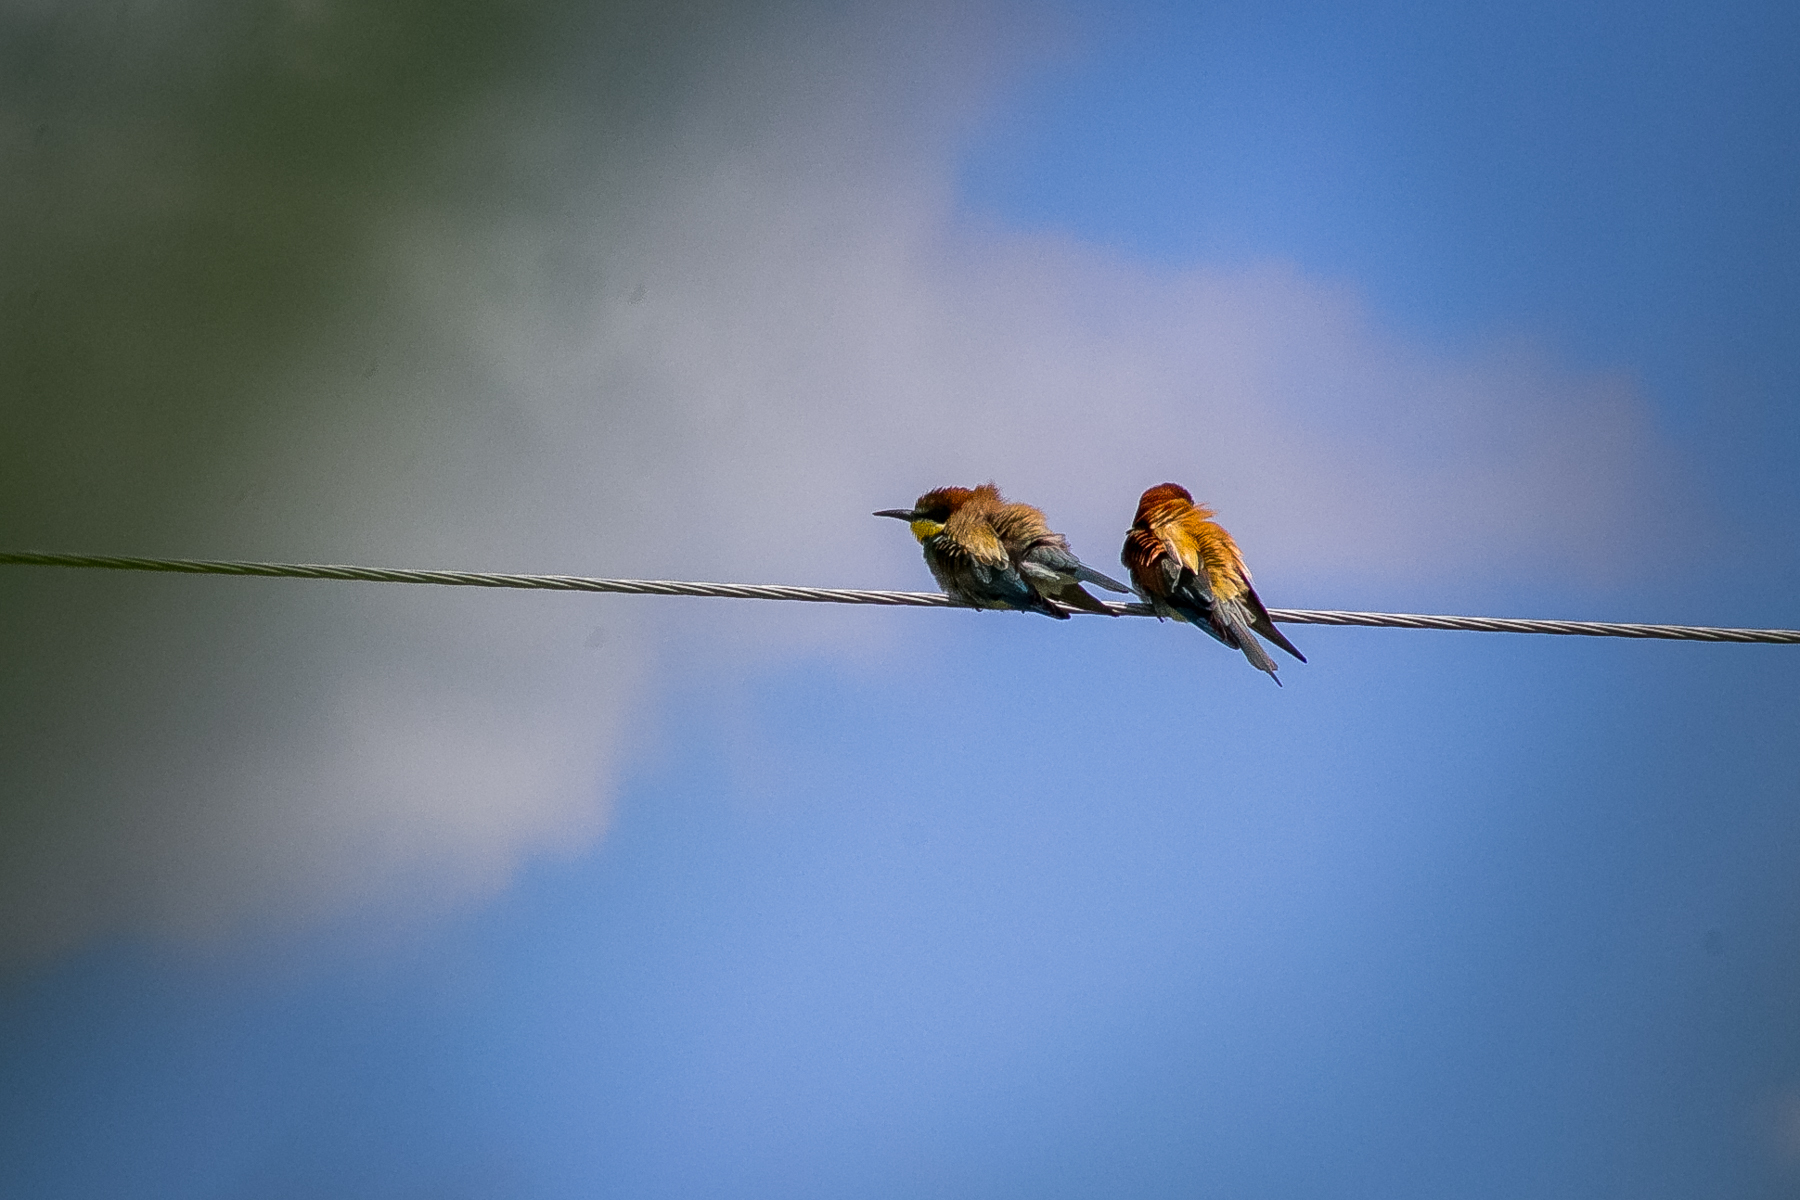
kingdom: Animalia
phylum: Chordata
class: Aves
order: Coraciiformes
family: Meropidae
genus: Merops
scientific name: Merops apiaster
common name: European bee-eater
